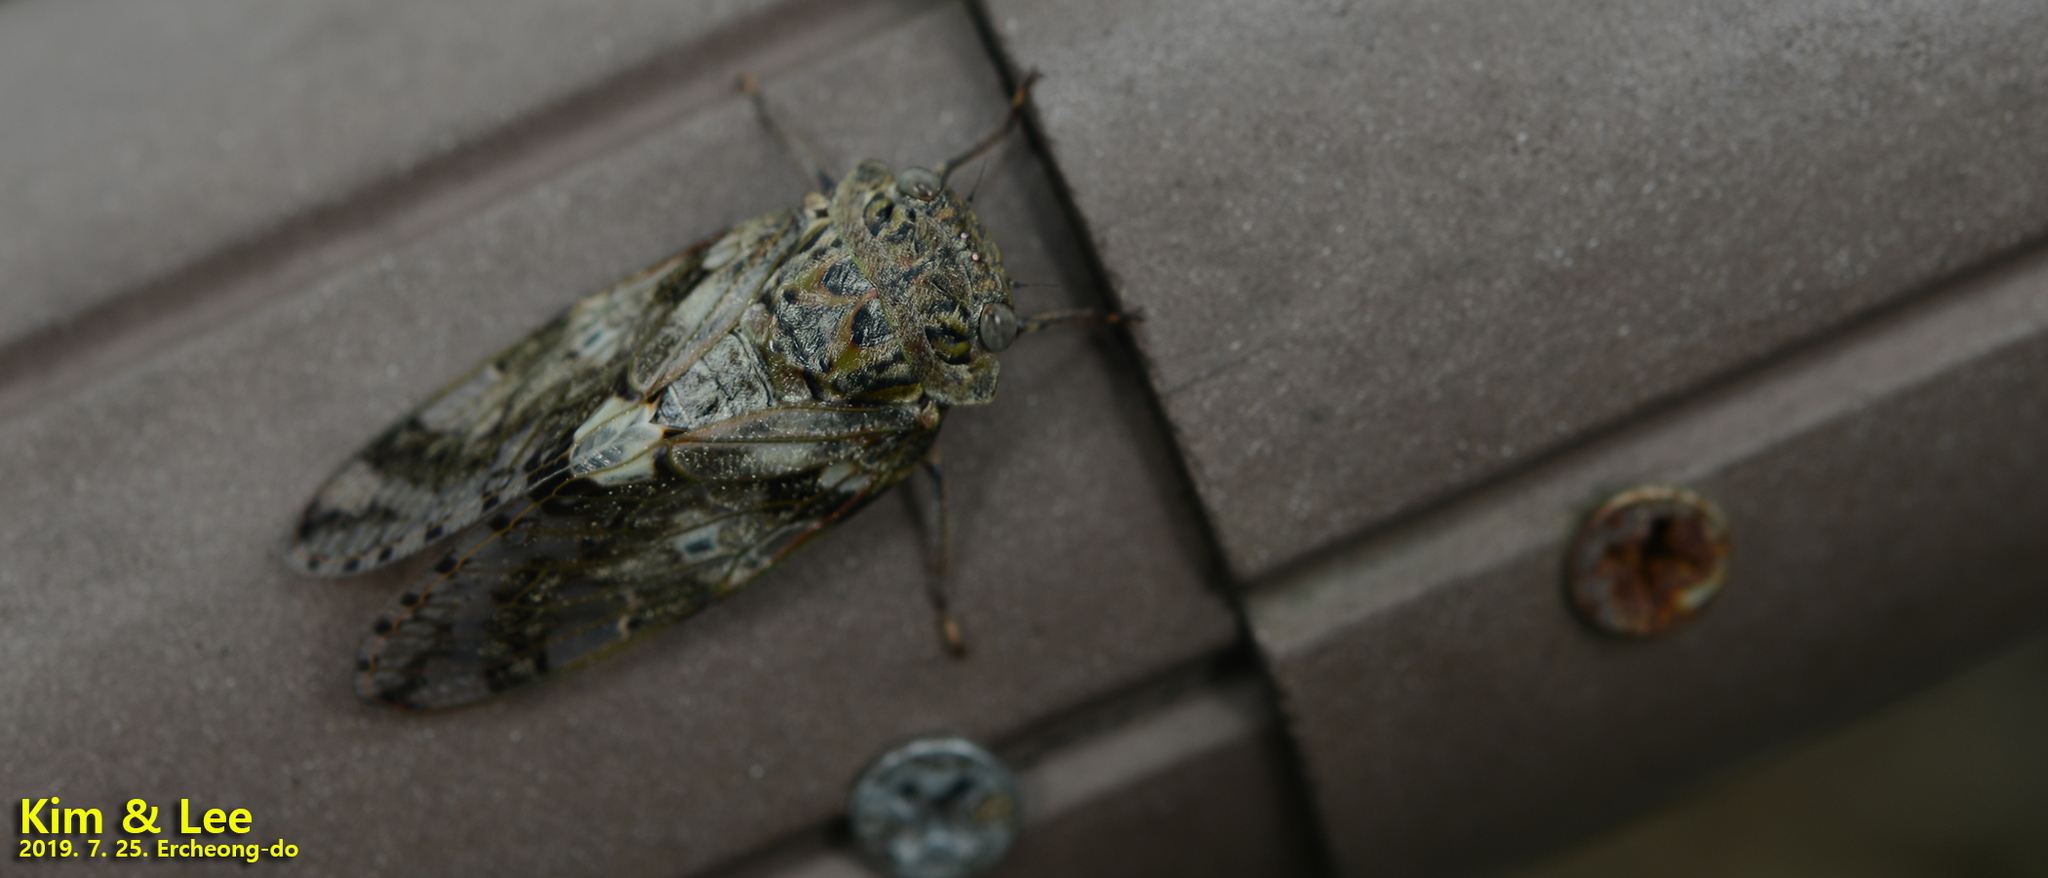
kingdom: Animalia
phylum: Arthropoda
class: Insecta
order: Hemiptera
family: Cicadidae
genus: Platypleura
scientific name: Platypleura kaempferi
